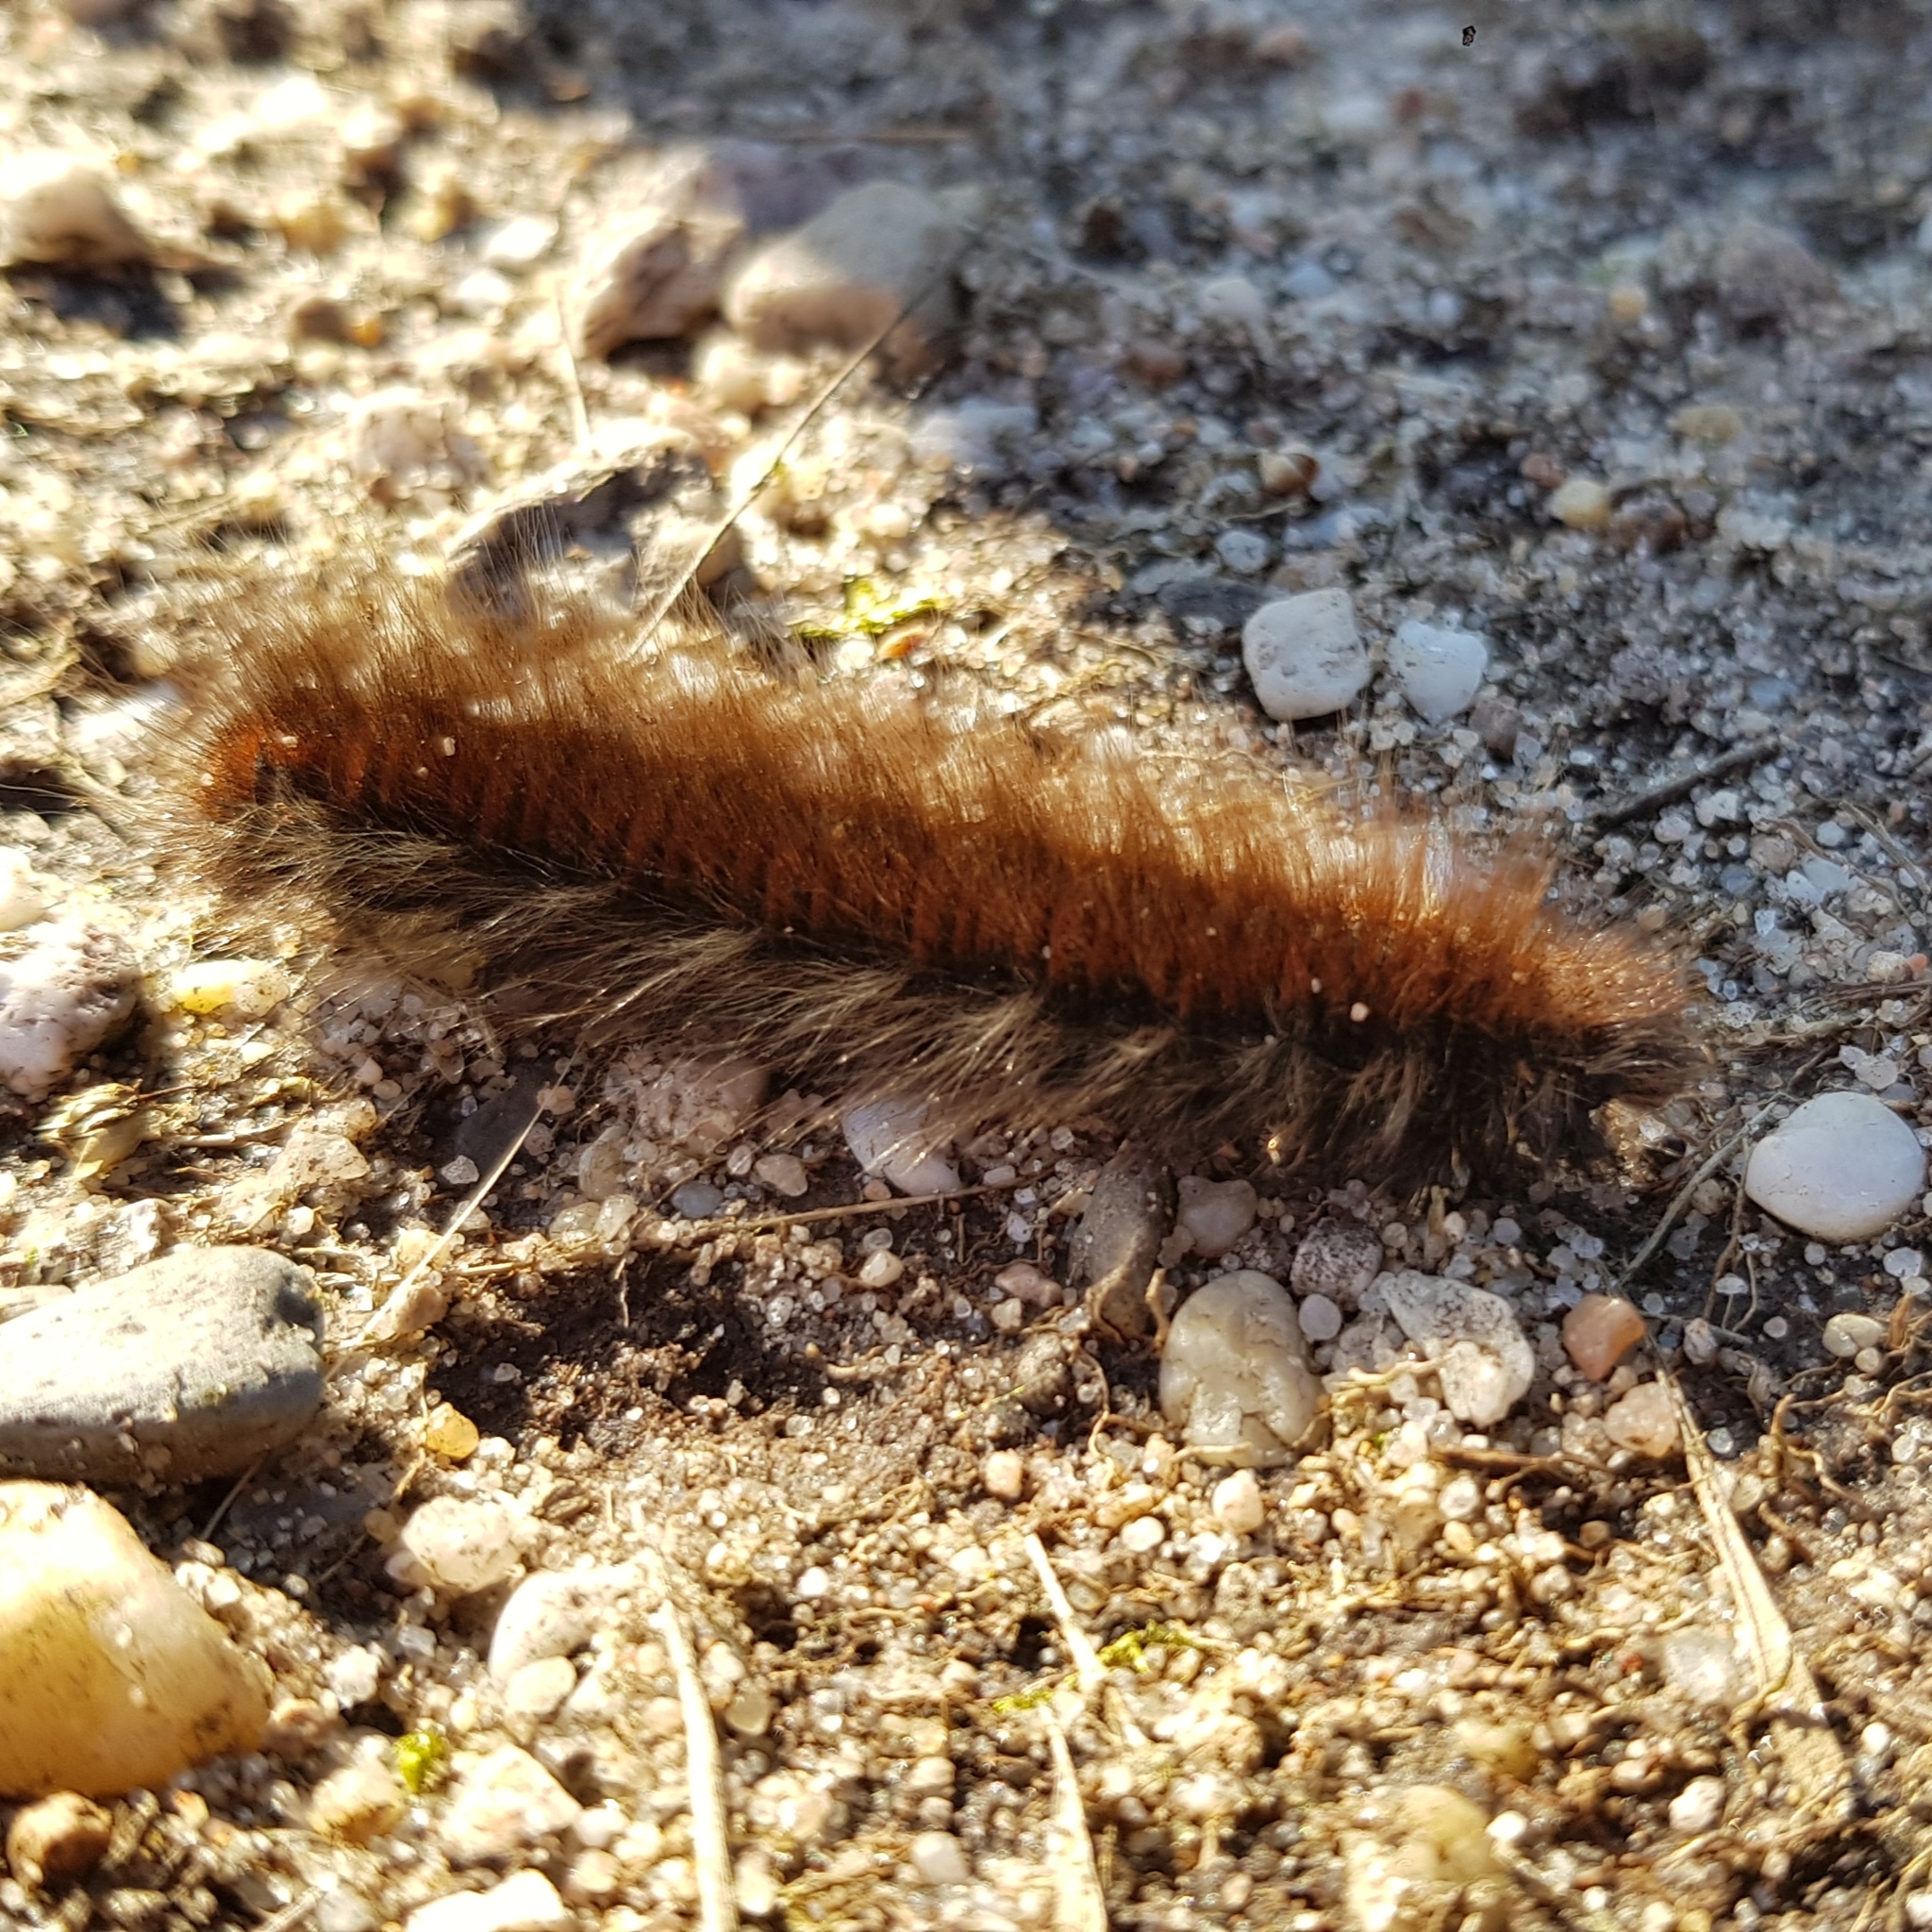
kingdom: Animalia
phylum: Arthropoda
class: Insecta
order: Lepidoptera
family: Lasiocampidae
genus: Macrothylacia
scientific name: Macrothylacia rubi
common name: Fox moth
